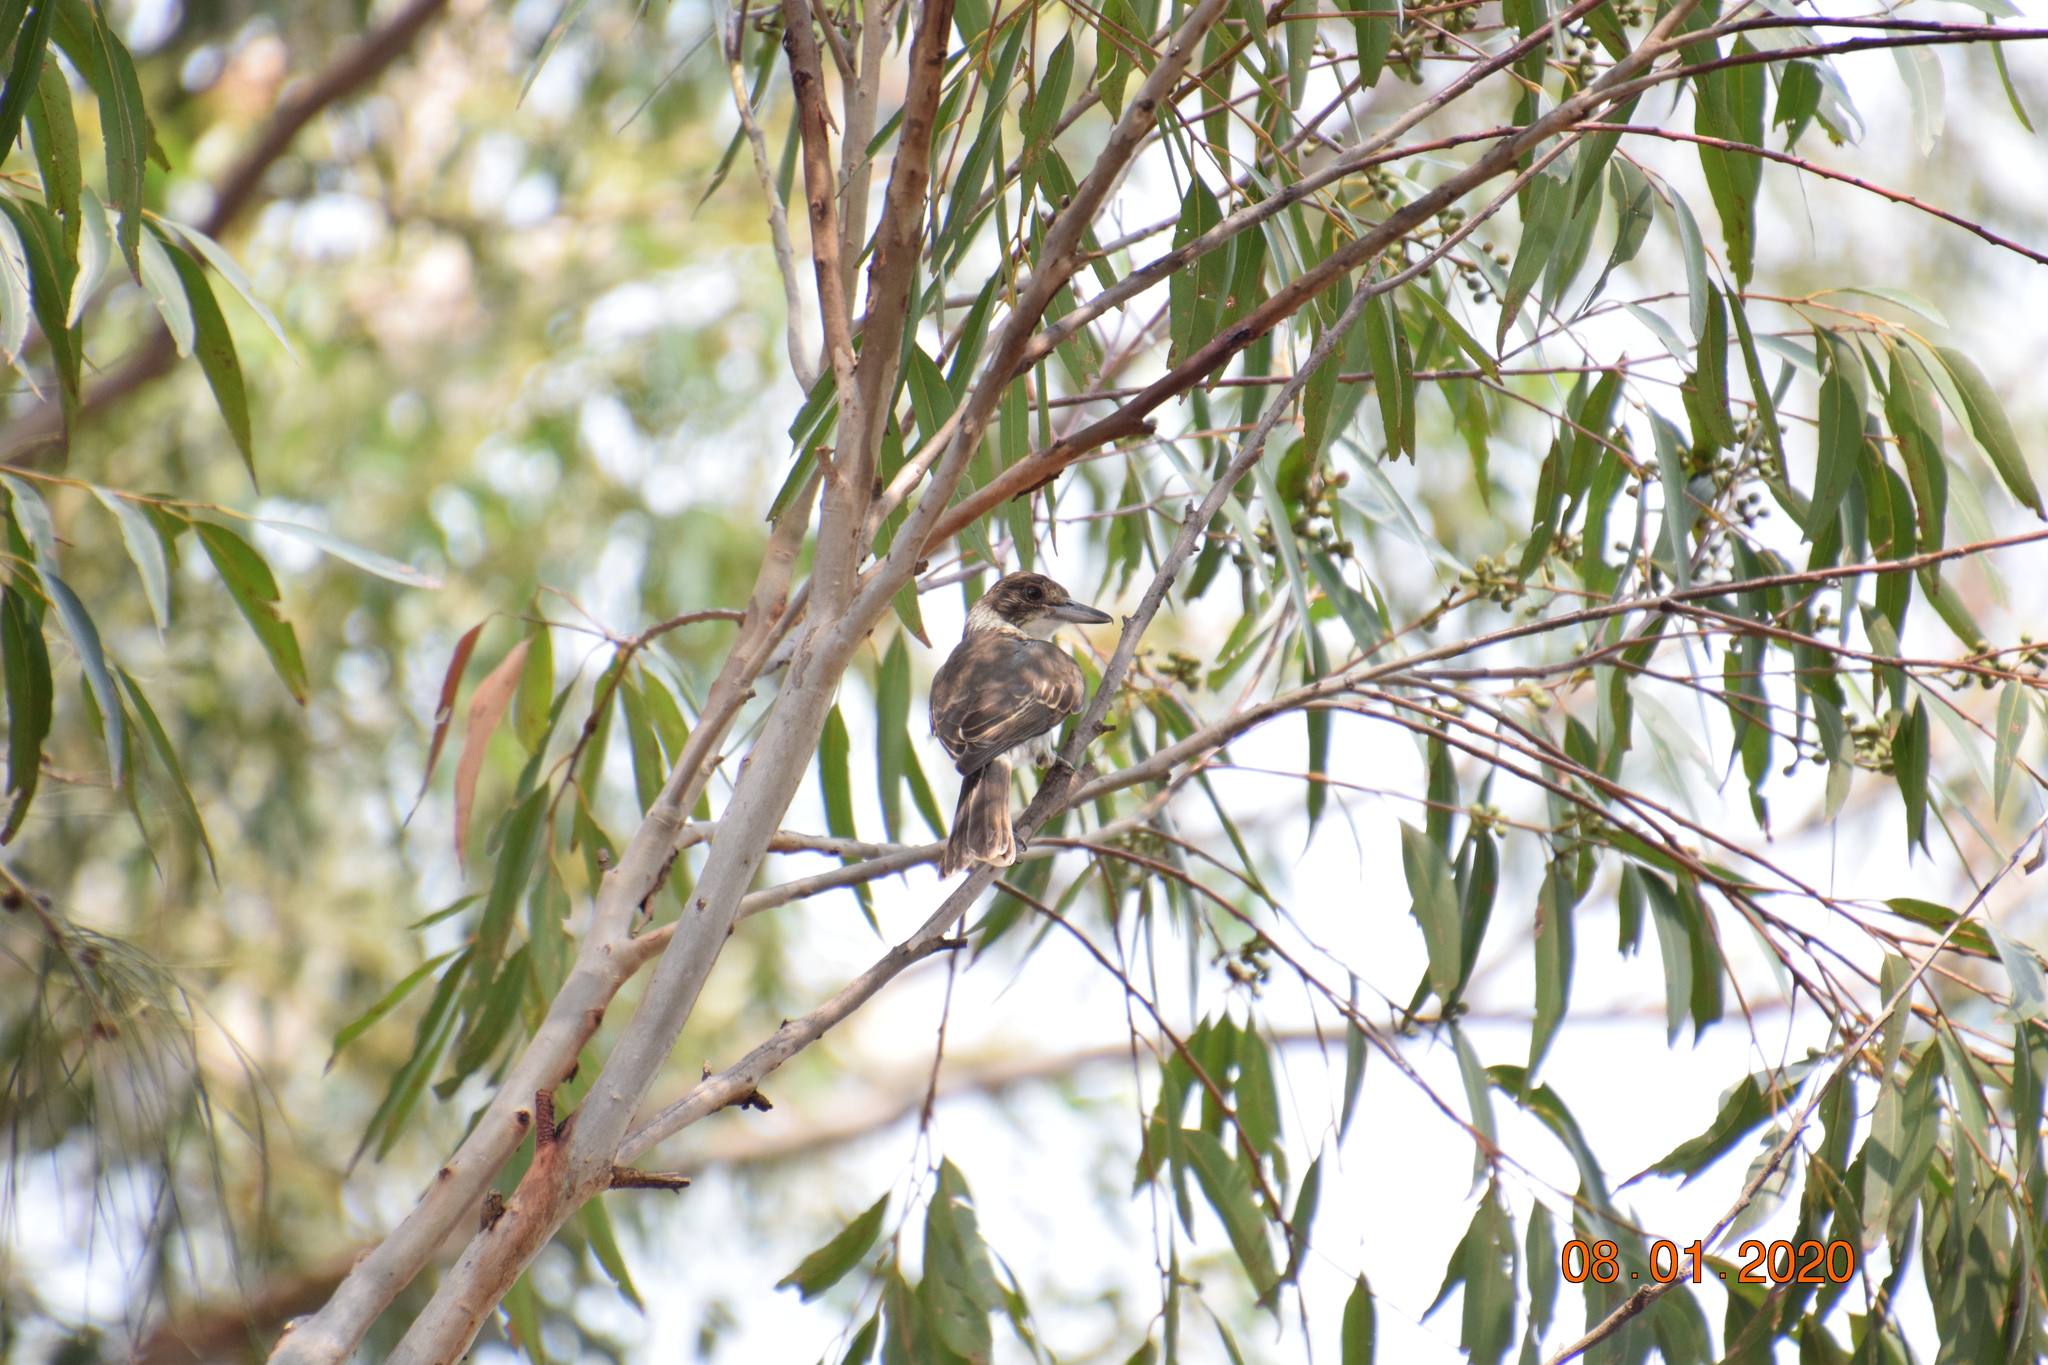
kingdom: Animalia
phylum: Chordata
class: Aves
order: Passeriformes
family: Cracticidae
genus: Cracticus
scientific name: Cracticus torquatus
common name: Grey butcherbird
